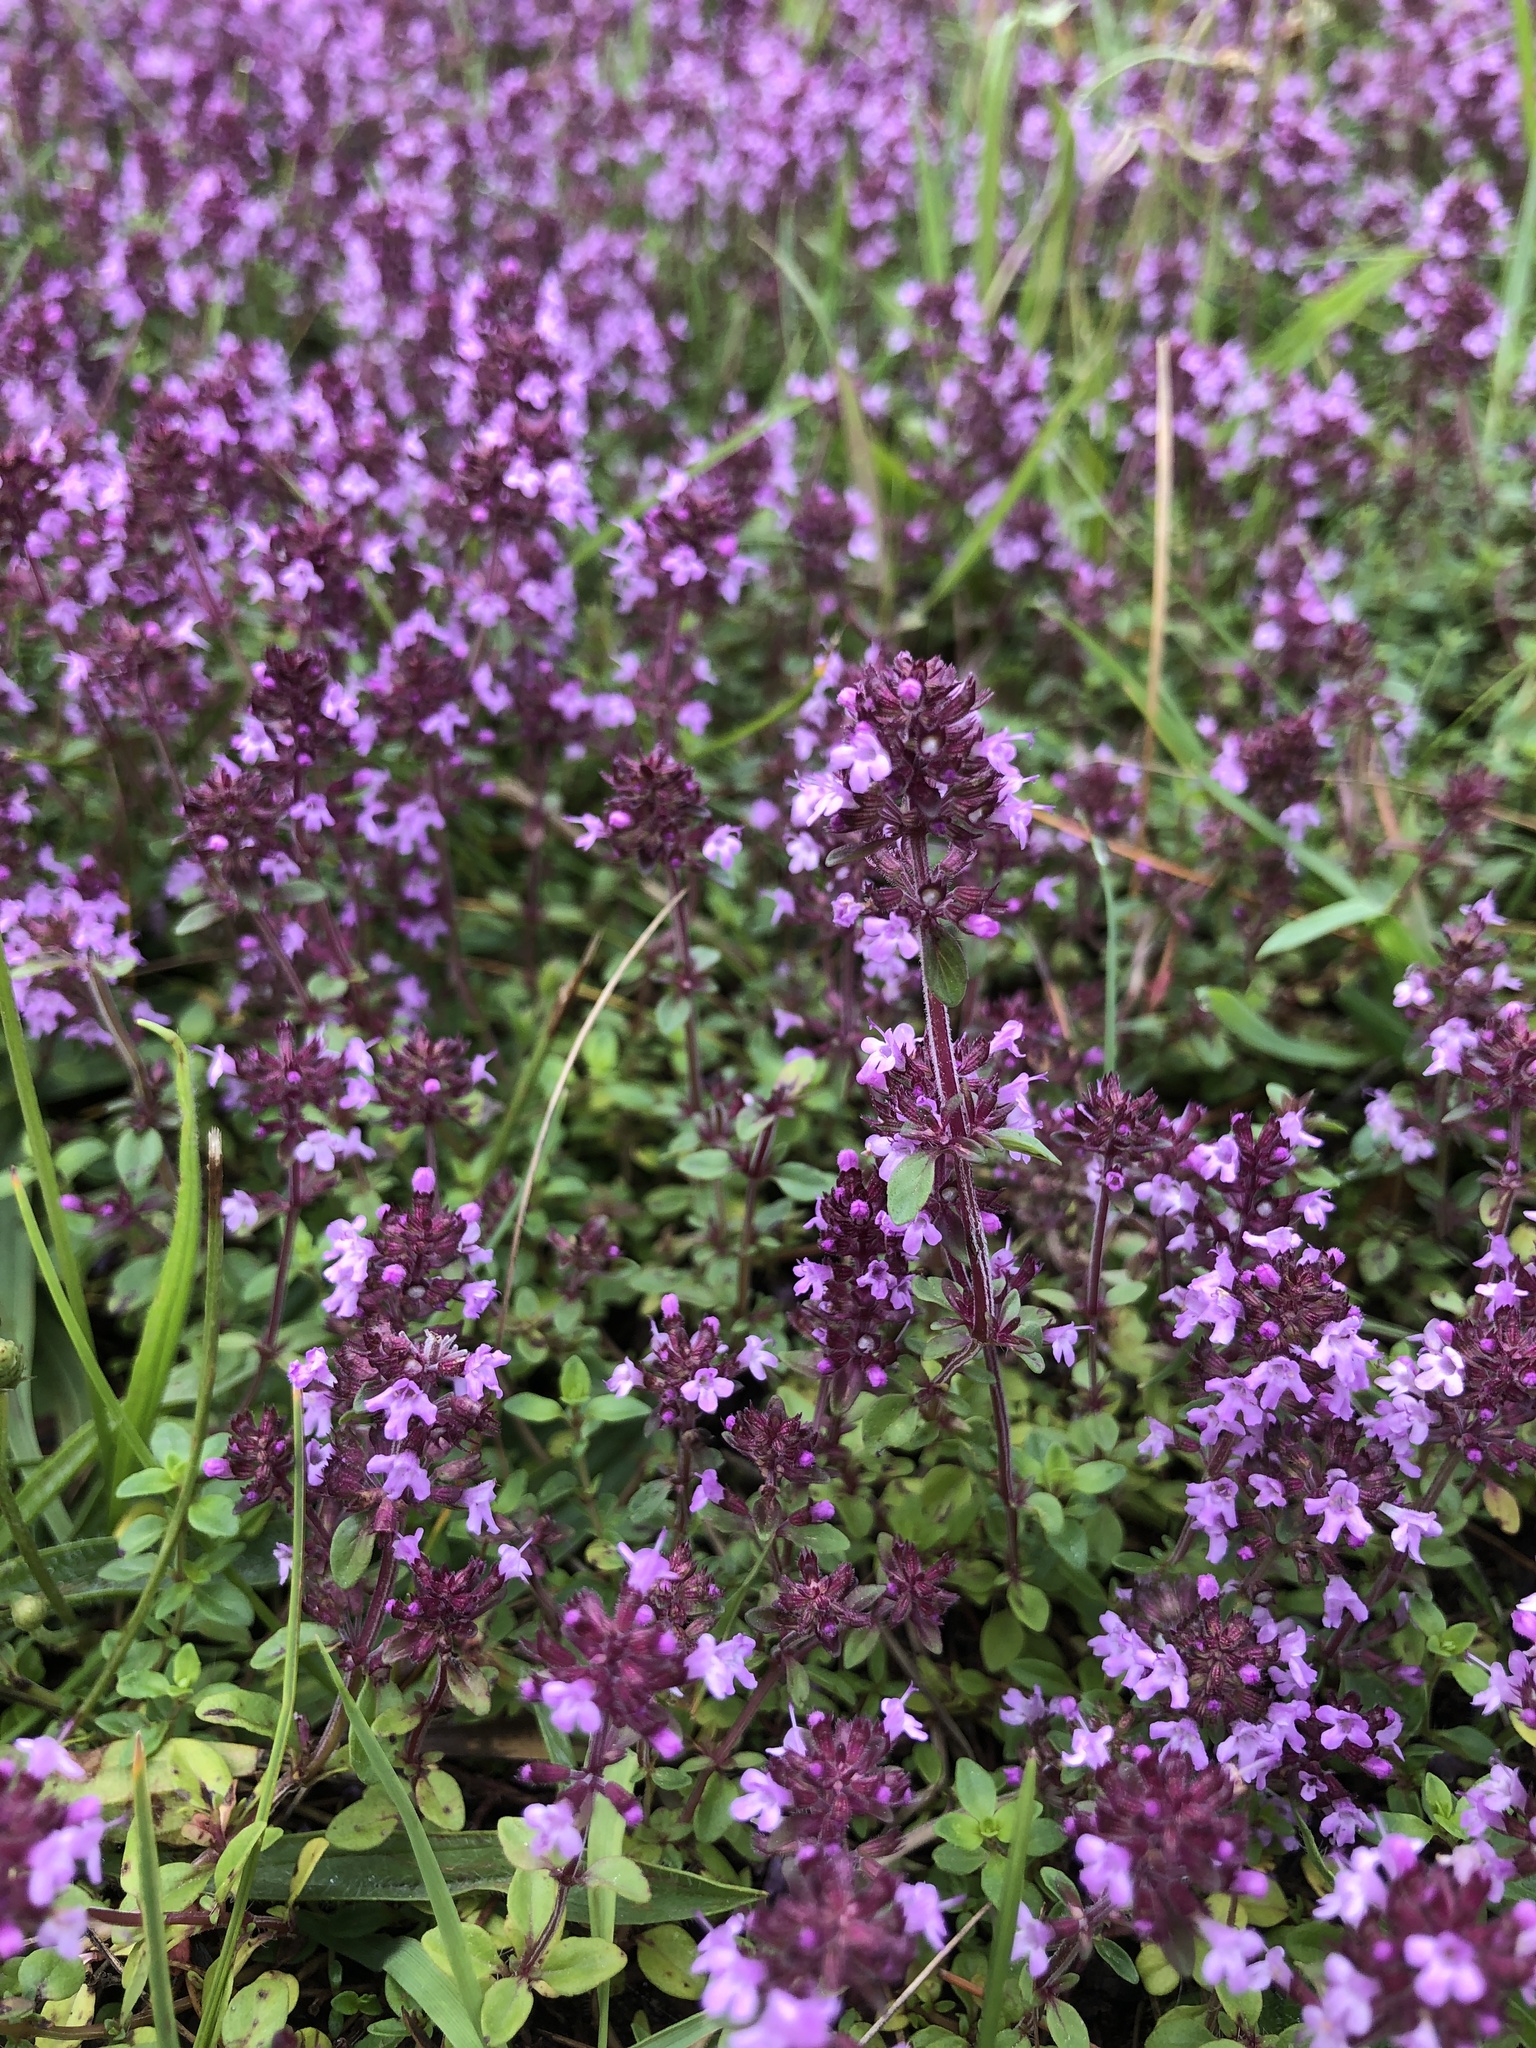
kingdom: Plantae
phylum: Tracheophyta
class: Magnoliopsida
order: Lamiales
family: Lamiaceae
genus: Thymus
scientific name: Thymus pulegioides
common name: Large thyme
